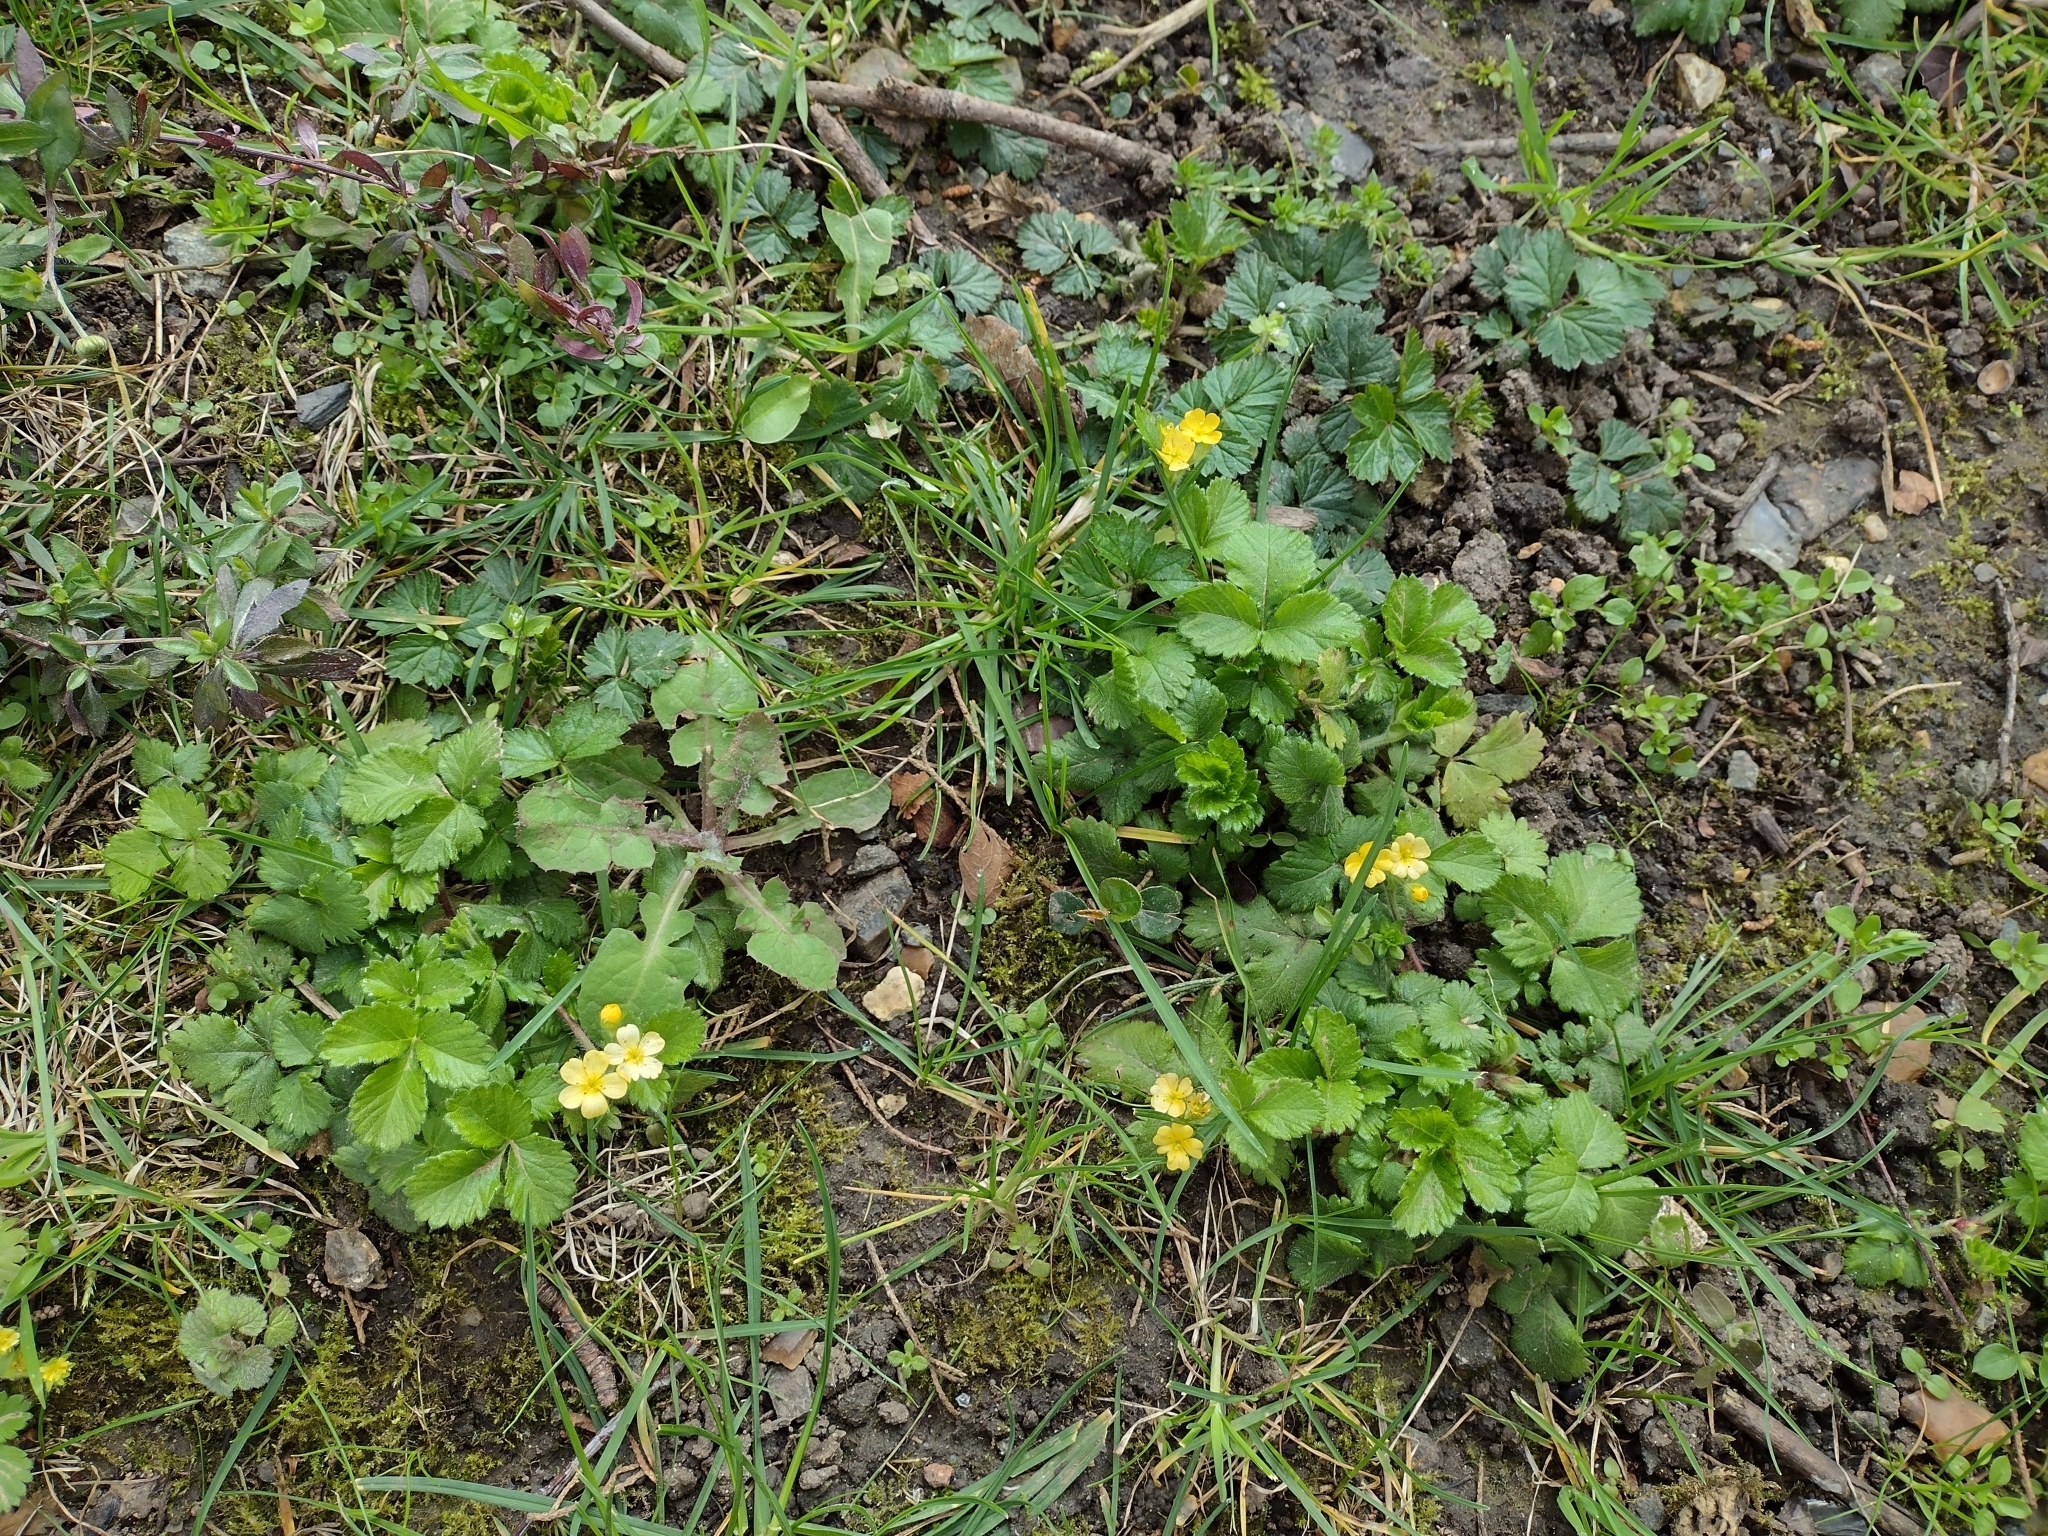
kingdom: Plantae
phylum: Tracheophyta
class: Magnoliopsida
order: Rosales
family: Rosaceae
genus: Aremonia
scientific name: Aremonia agrimonoides
